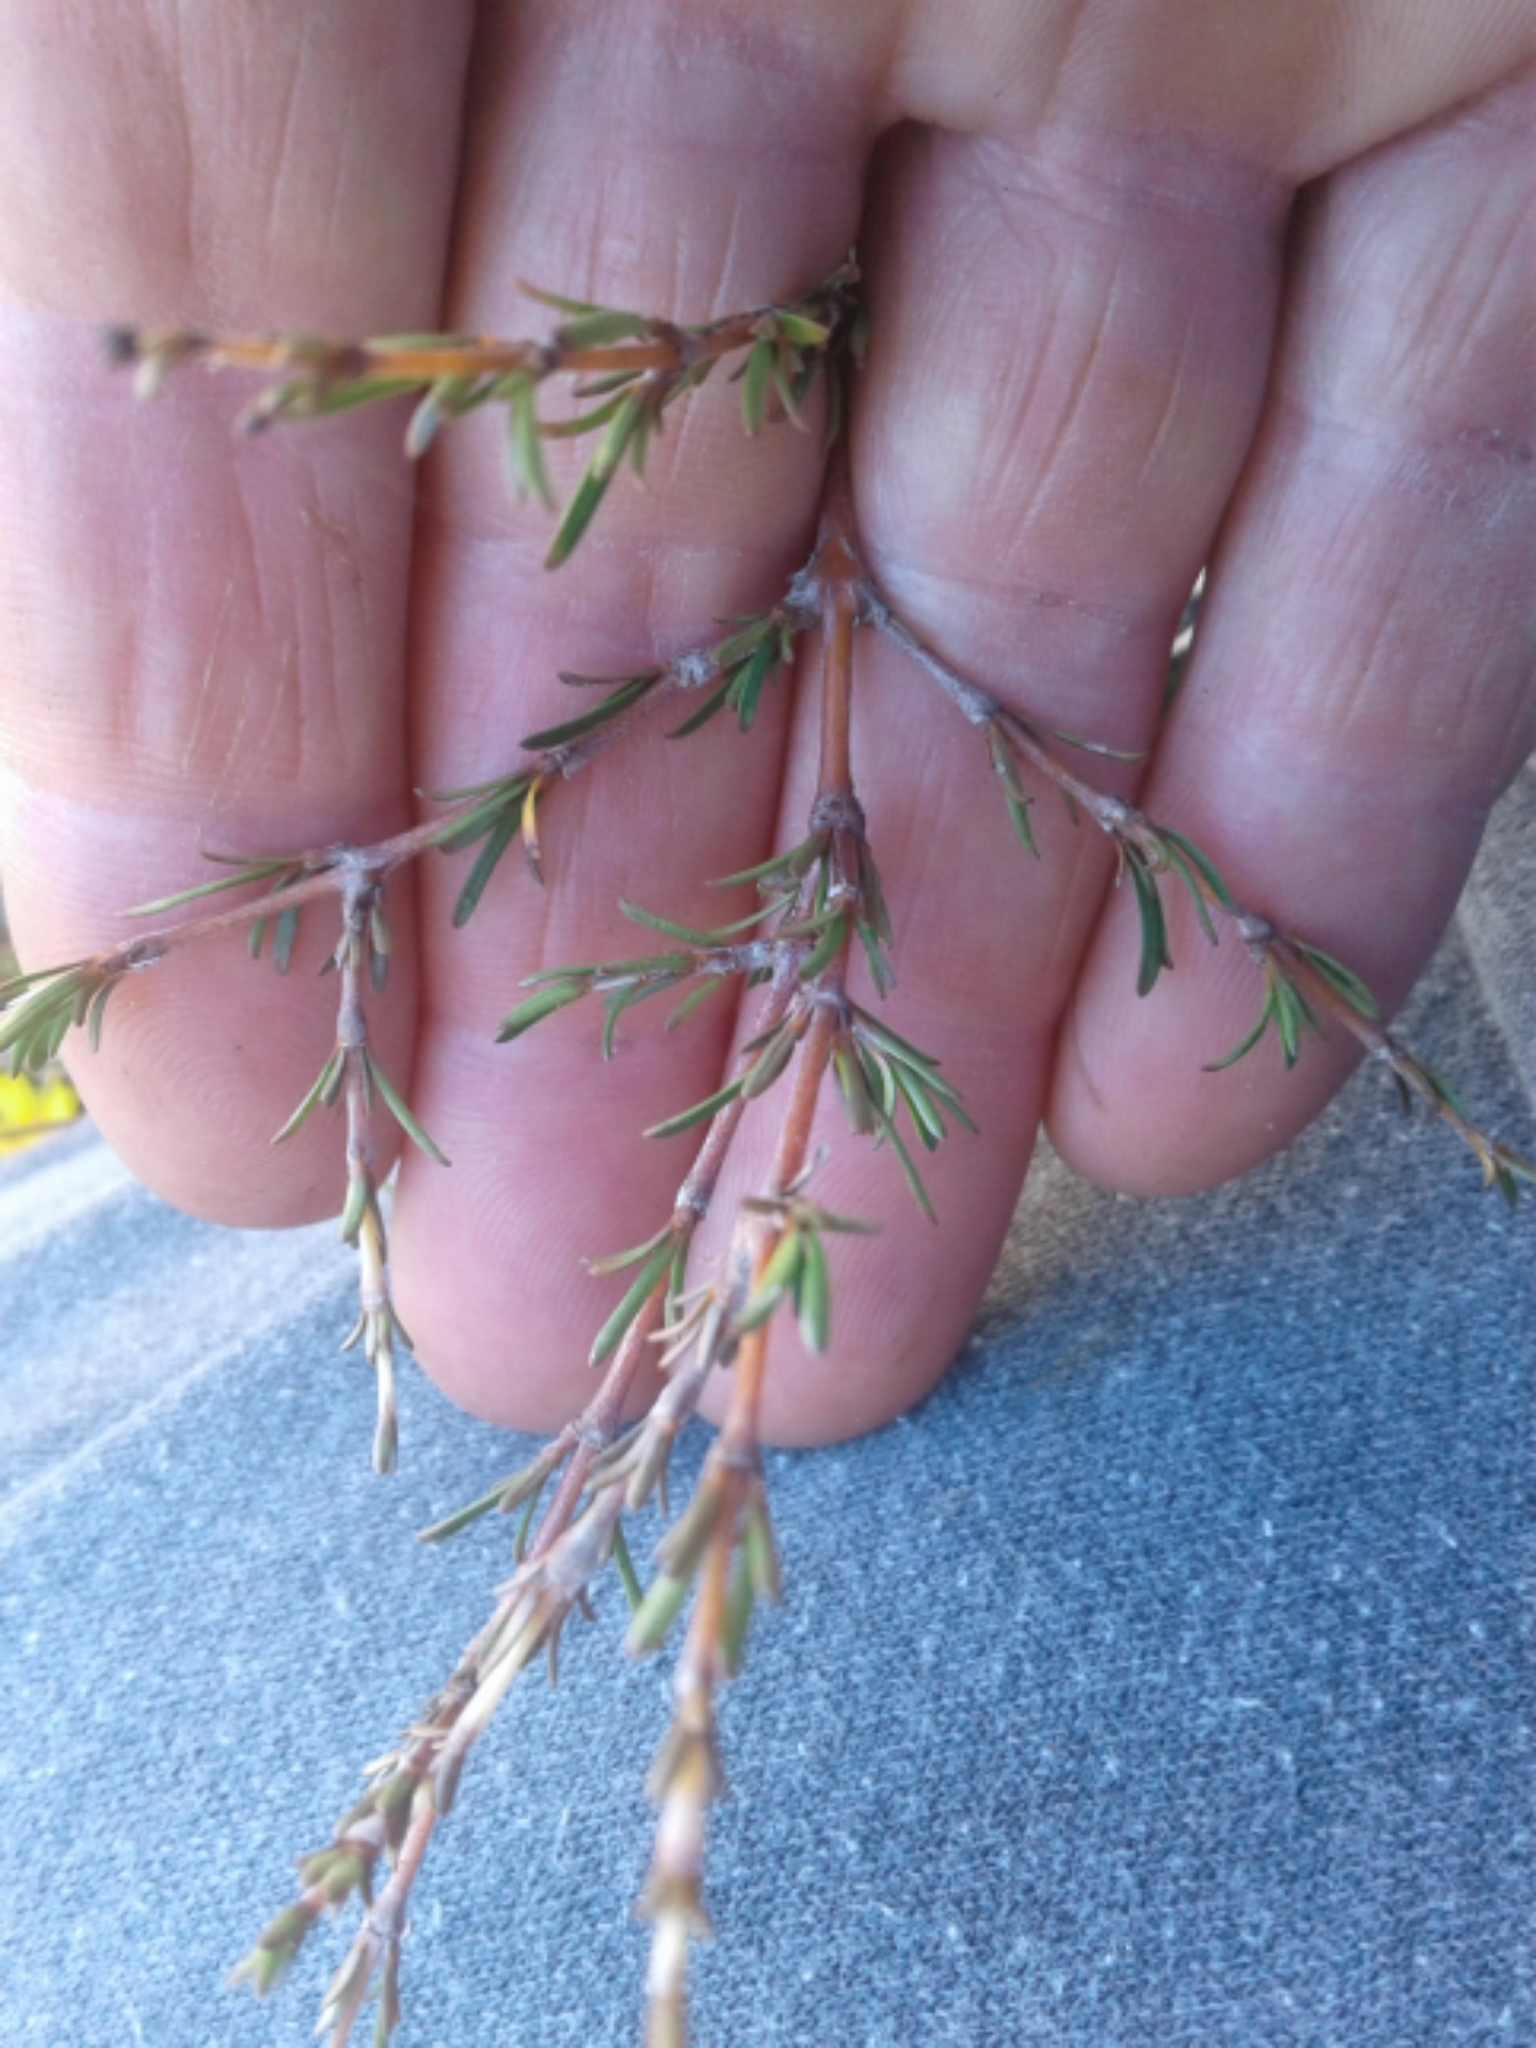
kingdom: Plantae
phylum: Tracheophyta
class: Magnoliopsida
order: Gentianales
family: Rubiaceae
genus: Coprosma
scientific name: Coprosma rugosa
